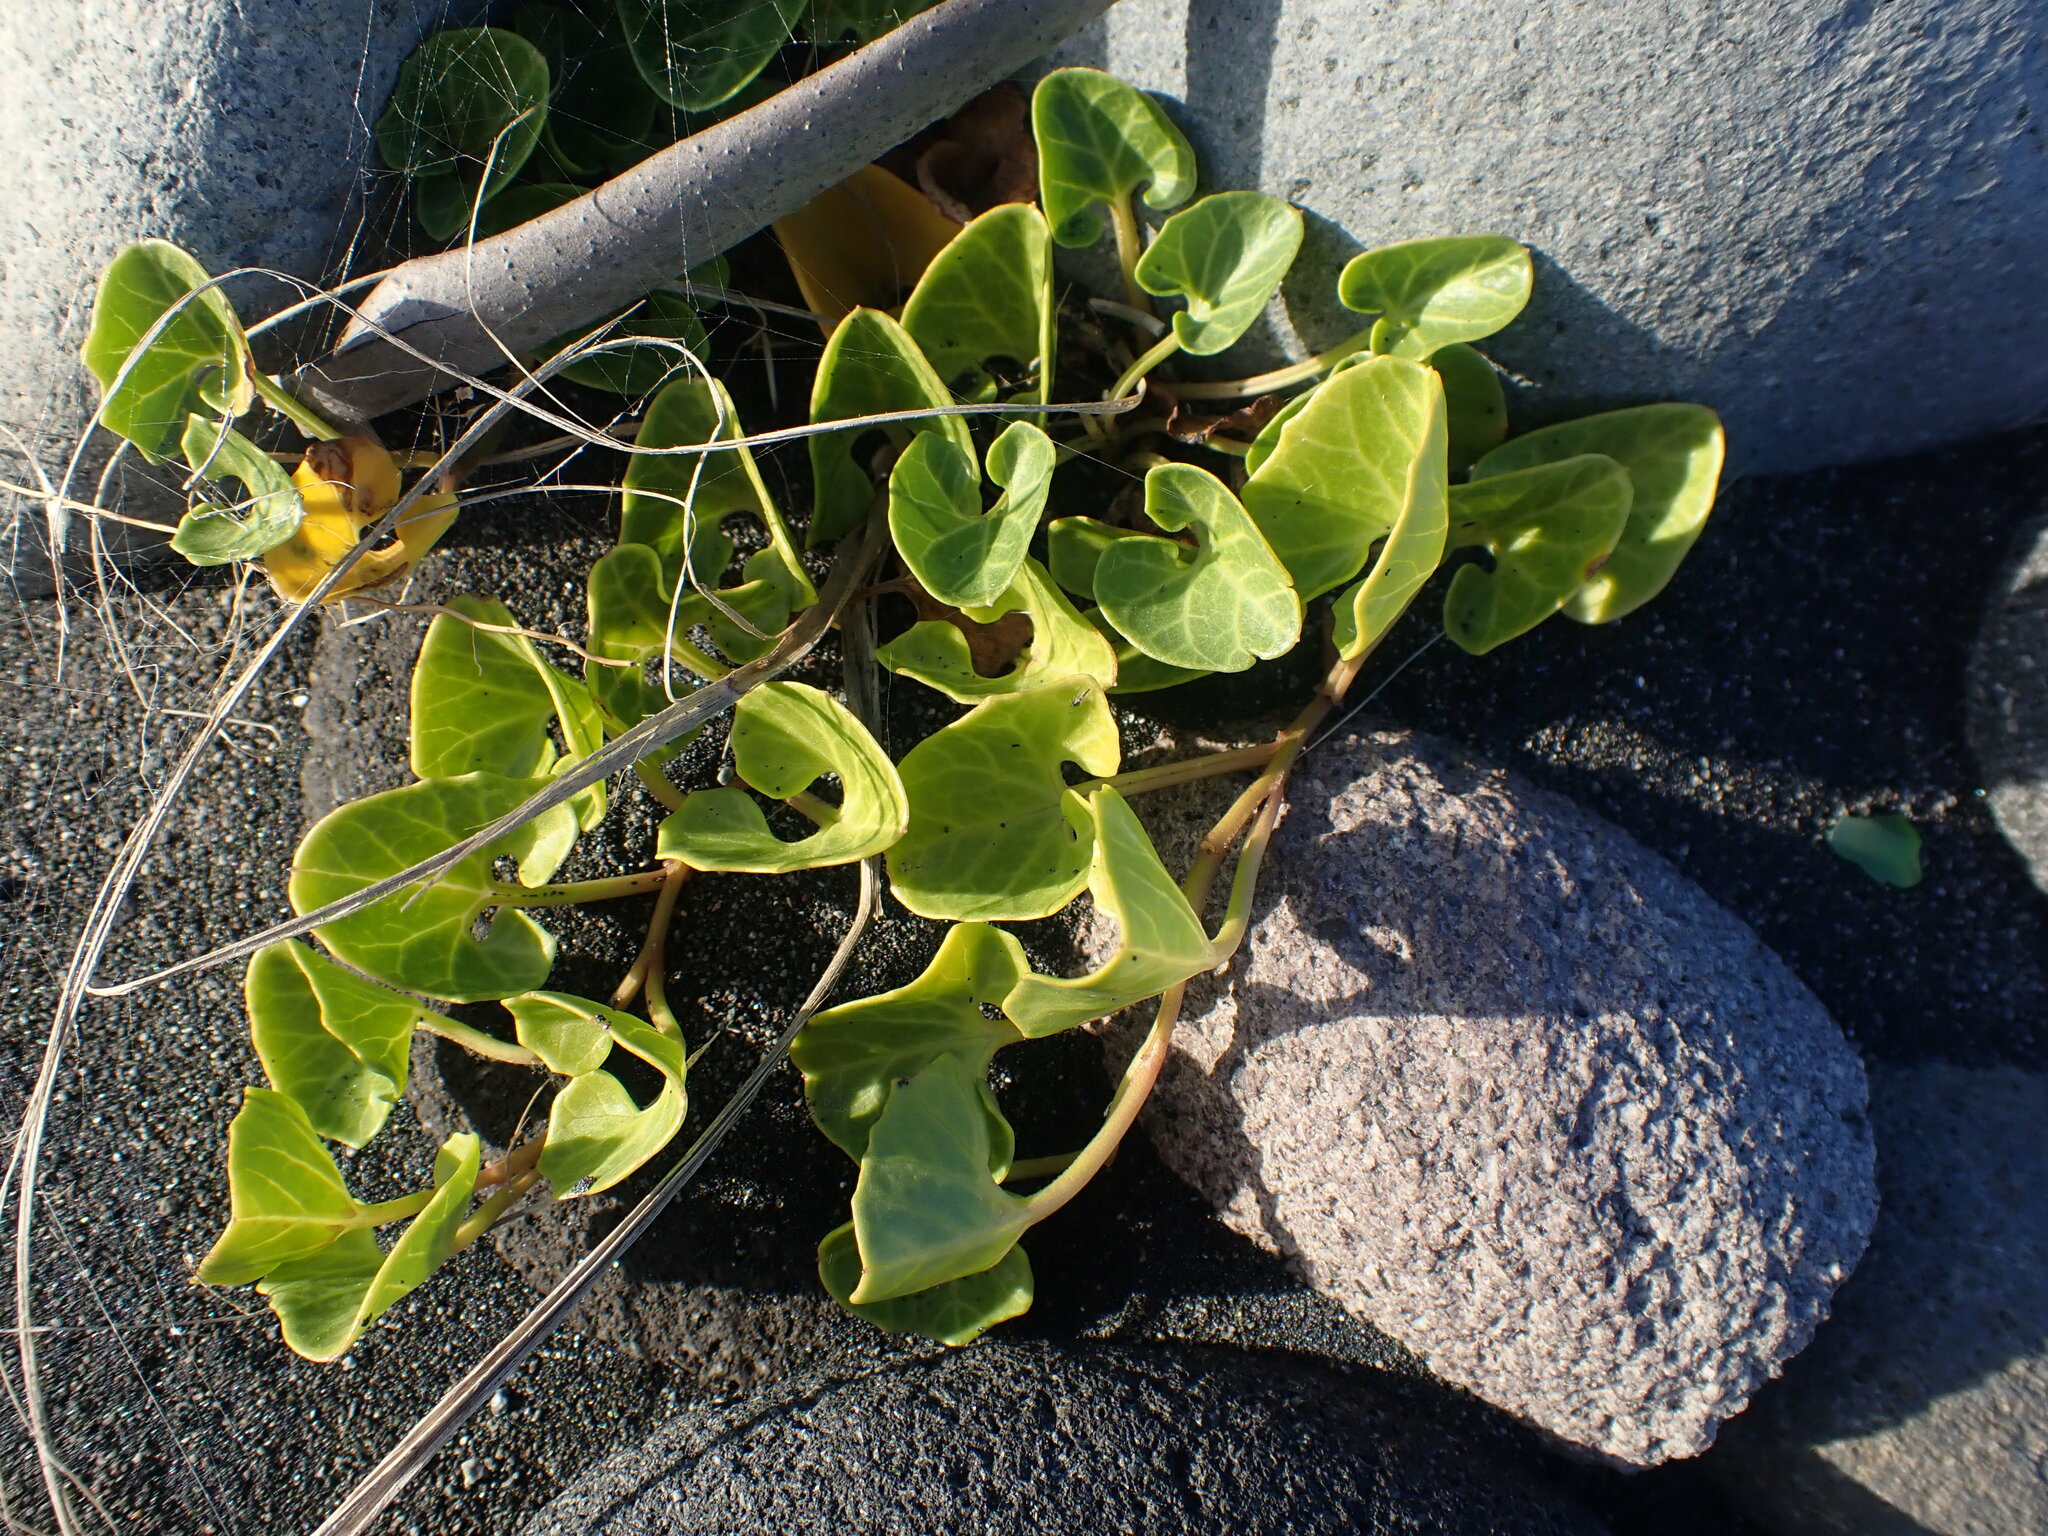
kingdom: Plantae
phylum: Tracheophyta
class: Magnoliopsida
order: Solanales
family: Convolvulaceae
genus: Calystegia
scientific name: Calystegia soldanella
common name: Sea bindweed
